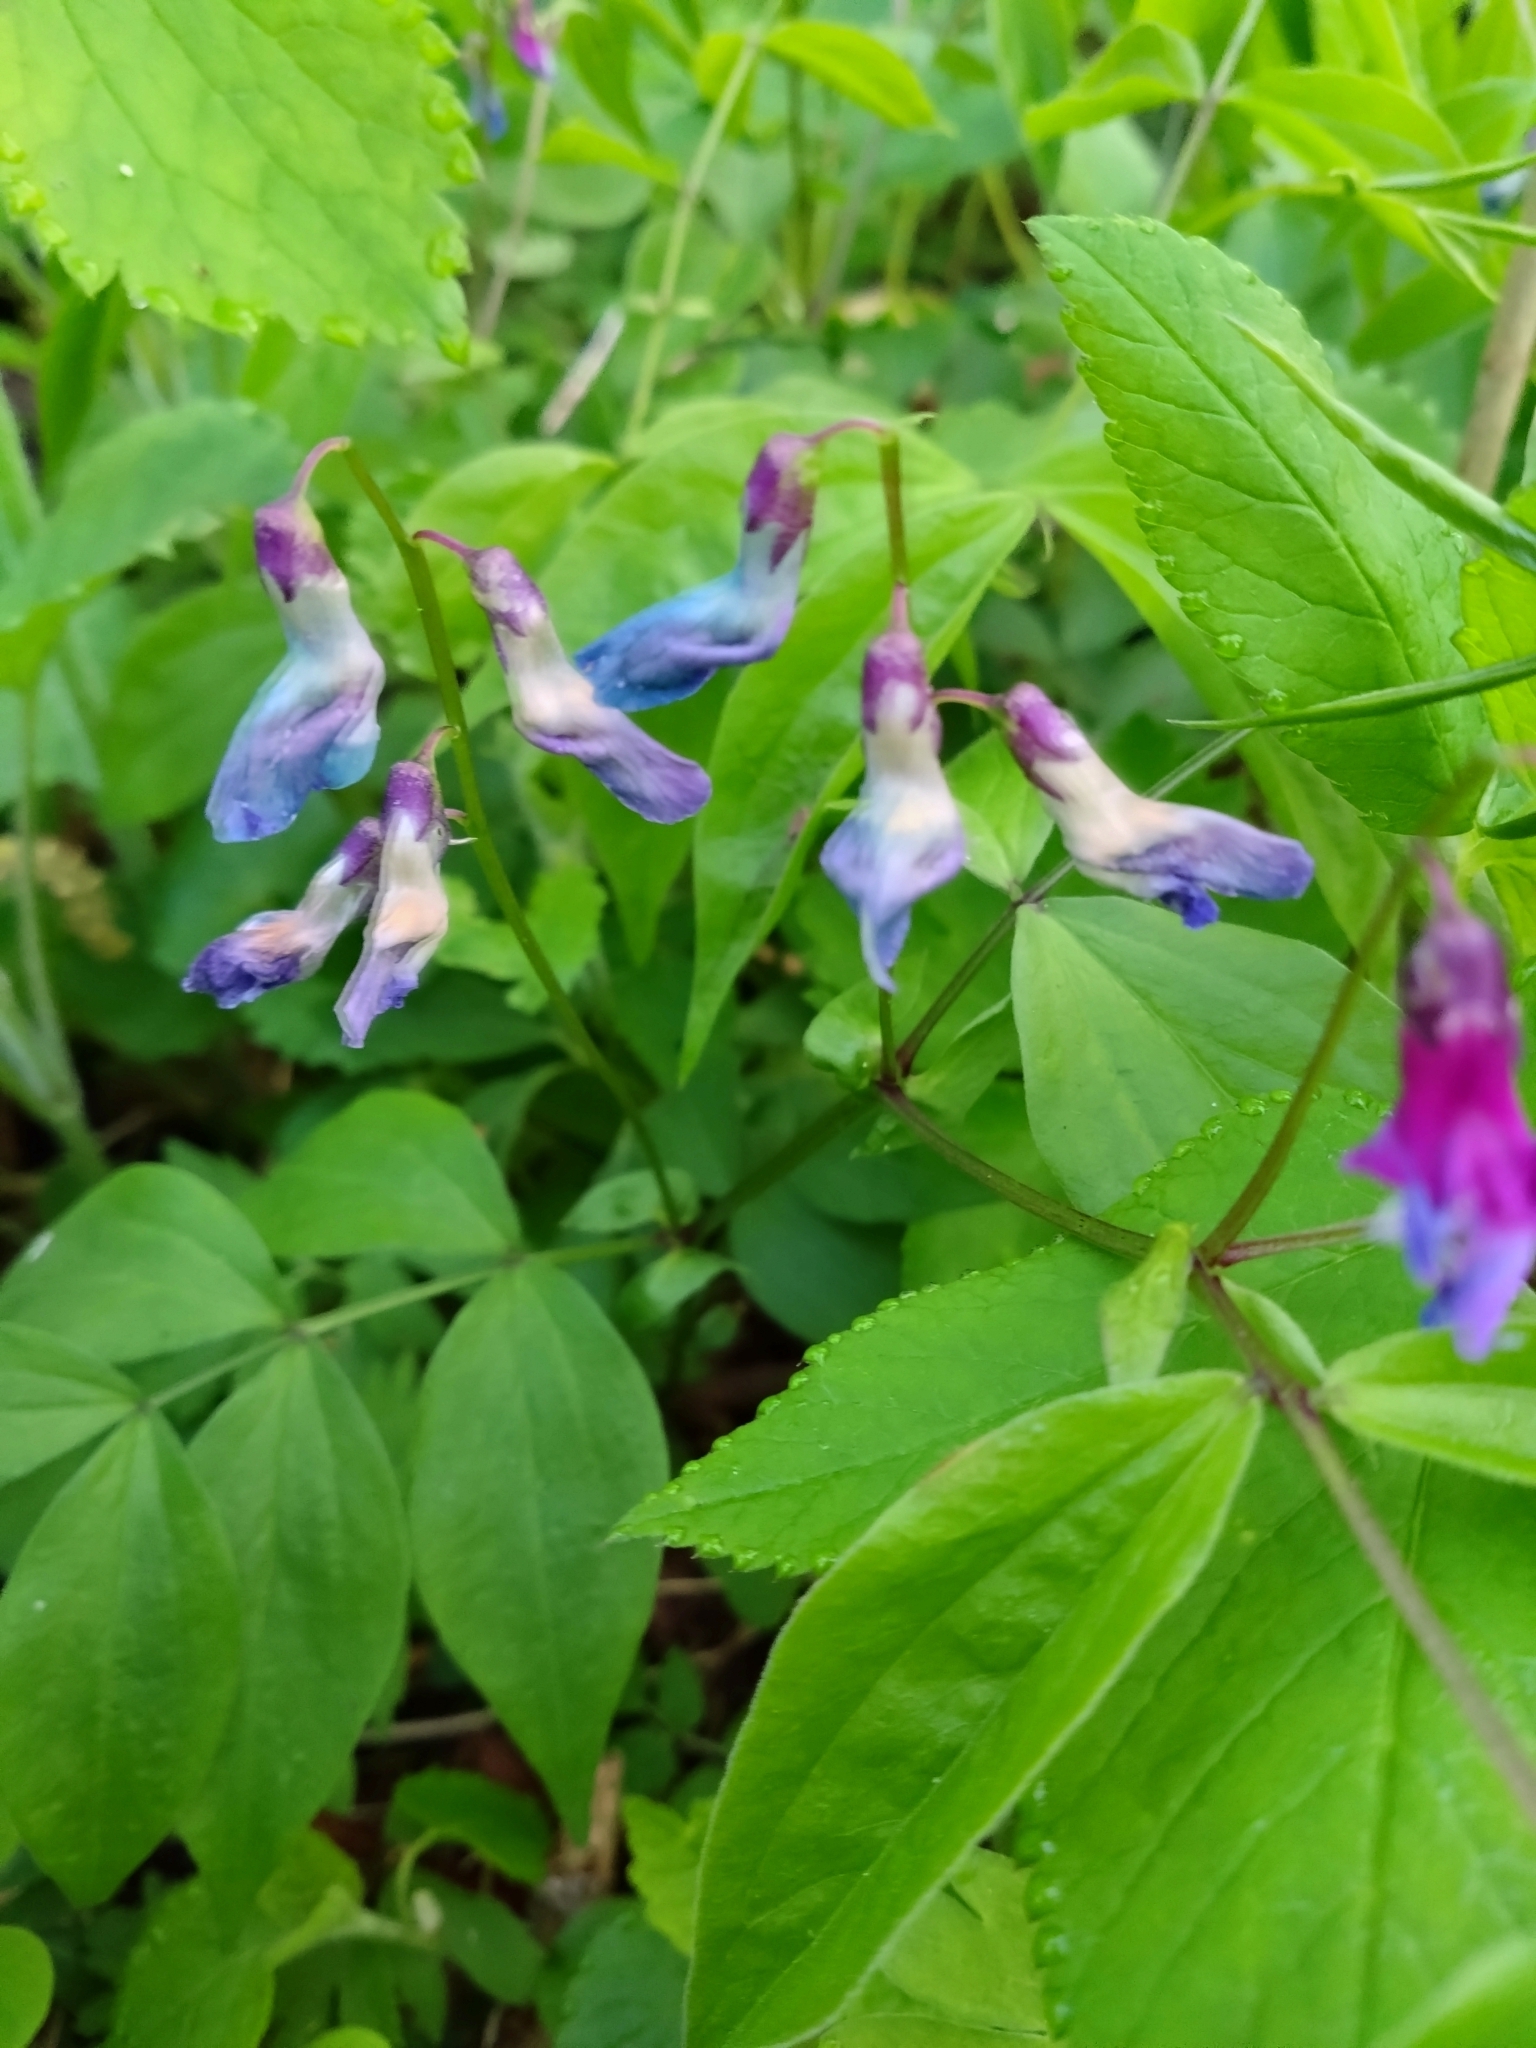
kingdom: Plantae
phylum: Tracheophyta
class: Magnoliopsida
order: Fabales
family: Fabaceae
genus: Lathyrus
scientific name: Lathyrus vernus
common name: Spring pea
